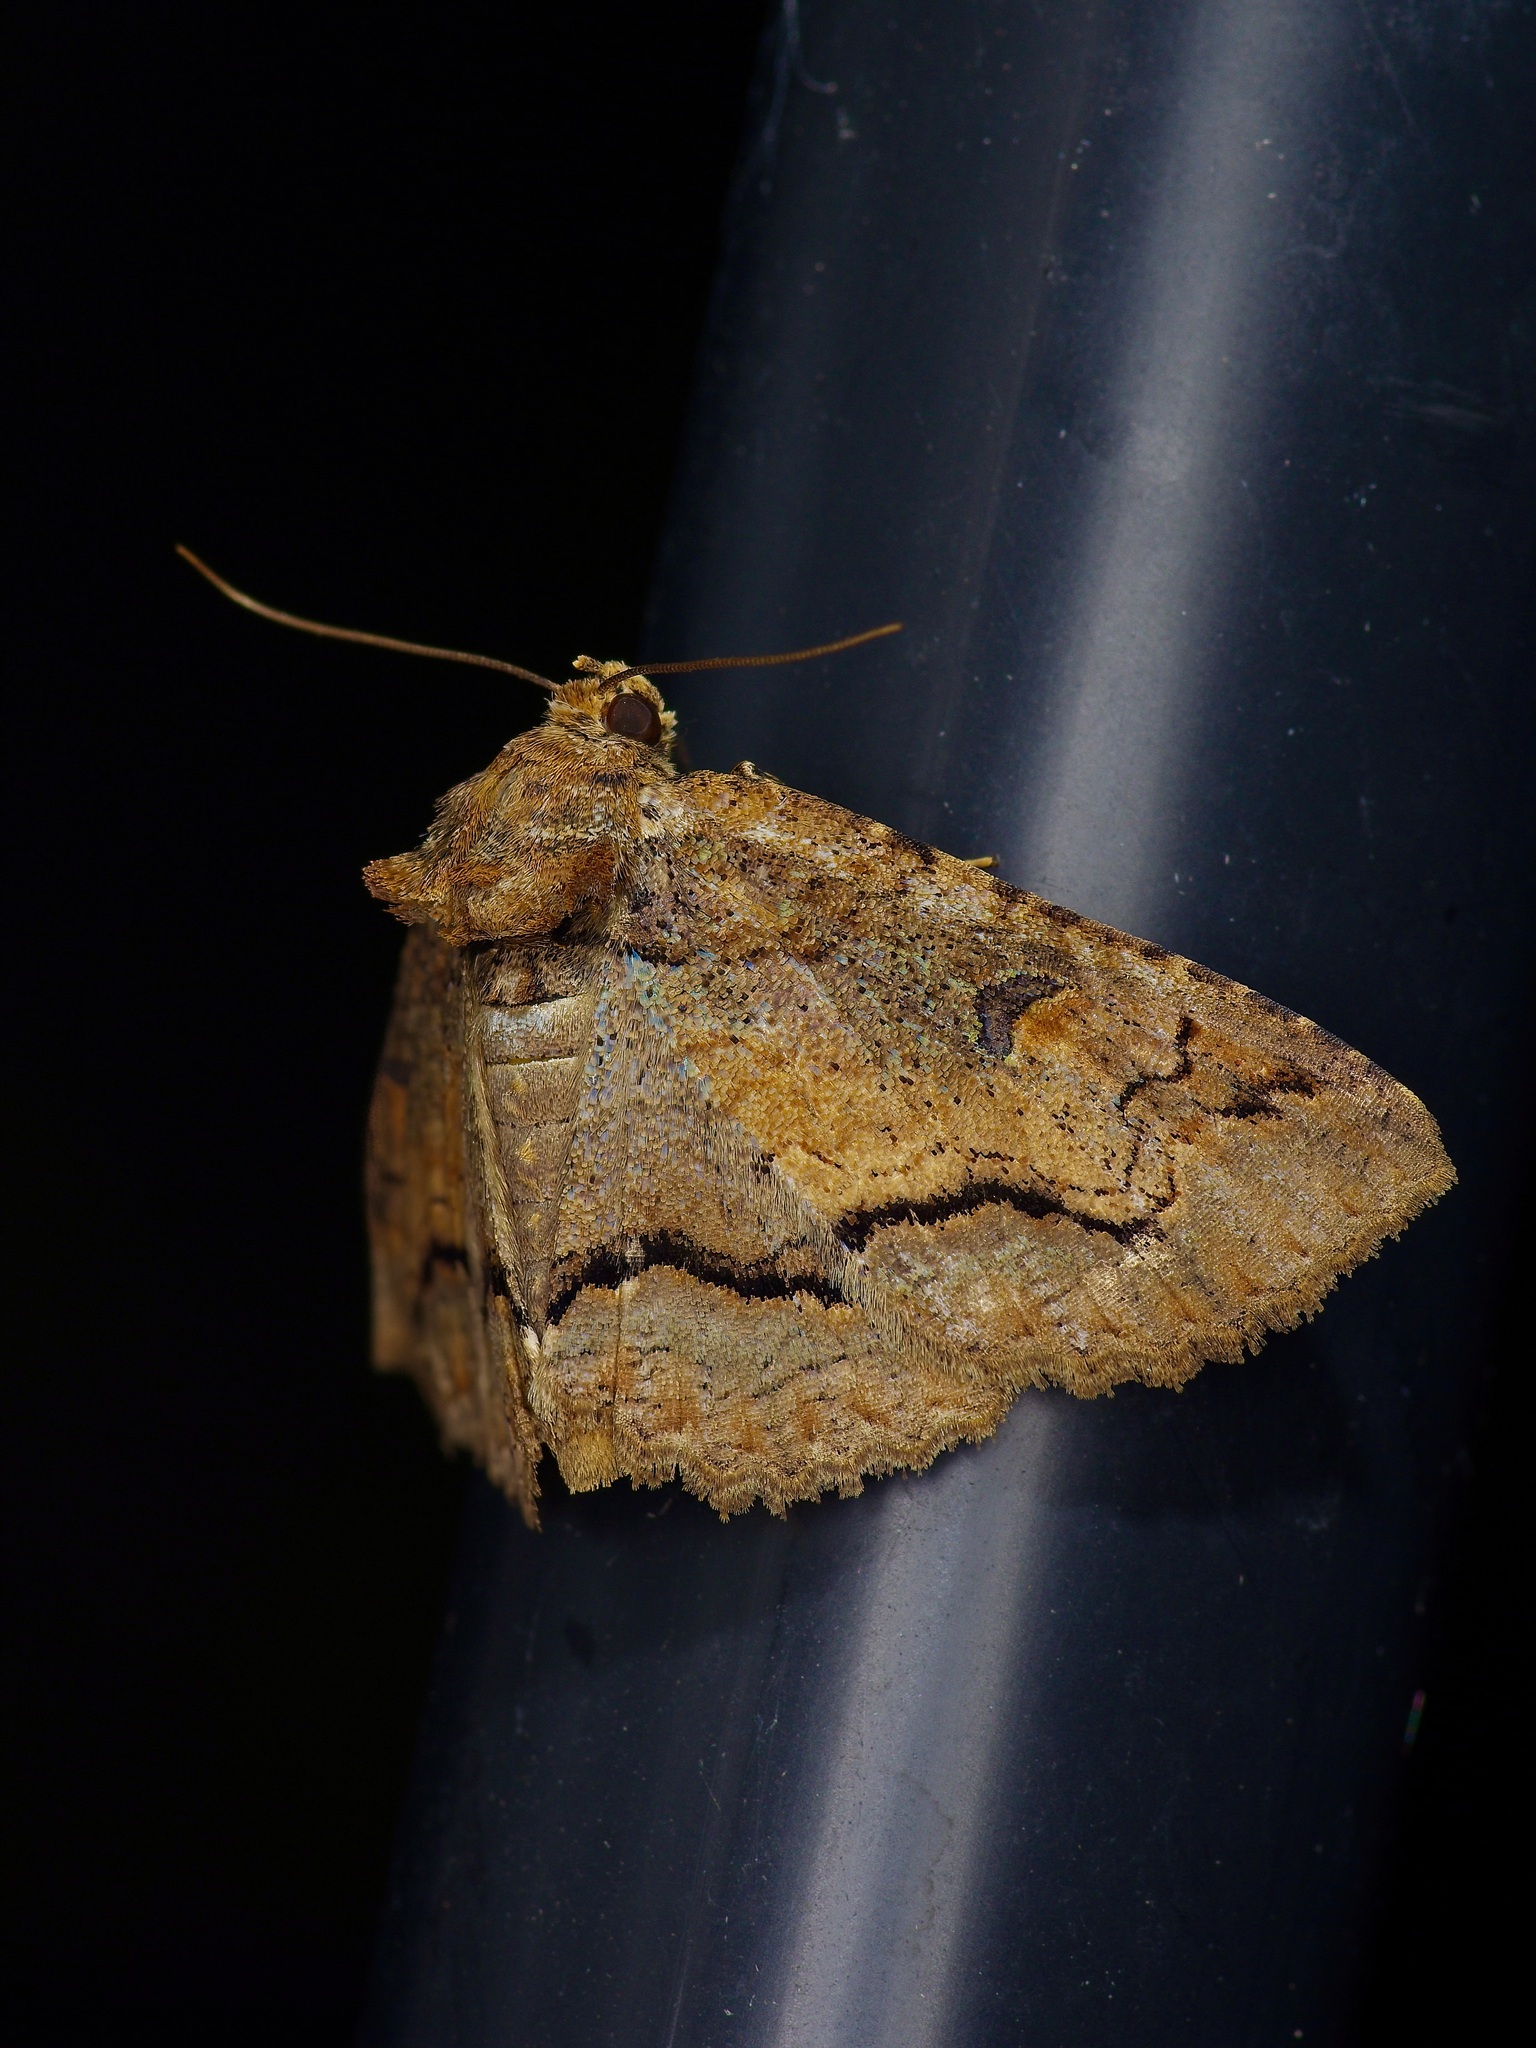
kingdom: Animalia
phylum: Arthropoda
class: Insecta
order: Lepidoptera
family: Erebidae
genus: Zale
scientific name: Zale galbanata
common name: Maple zale
